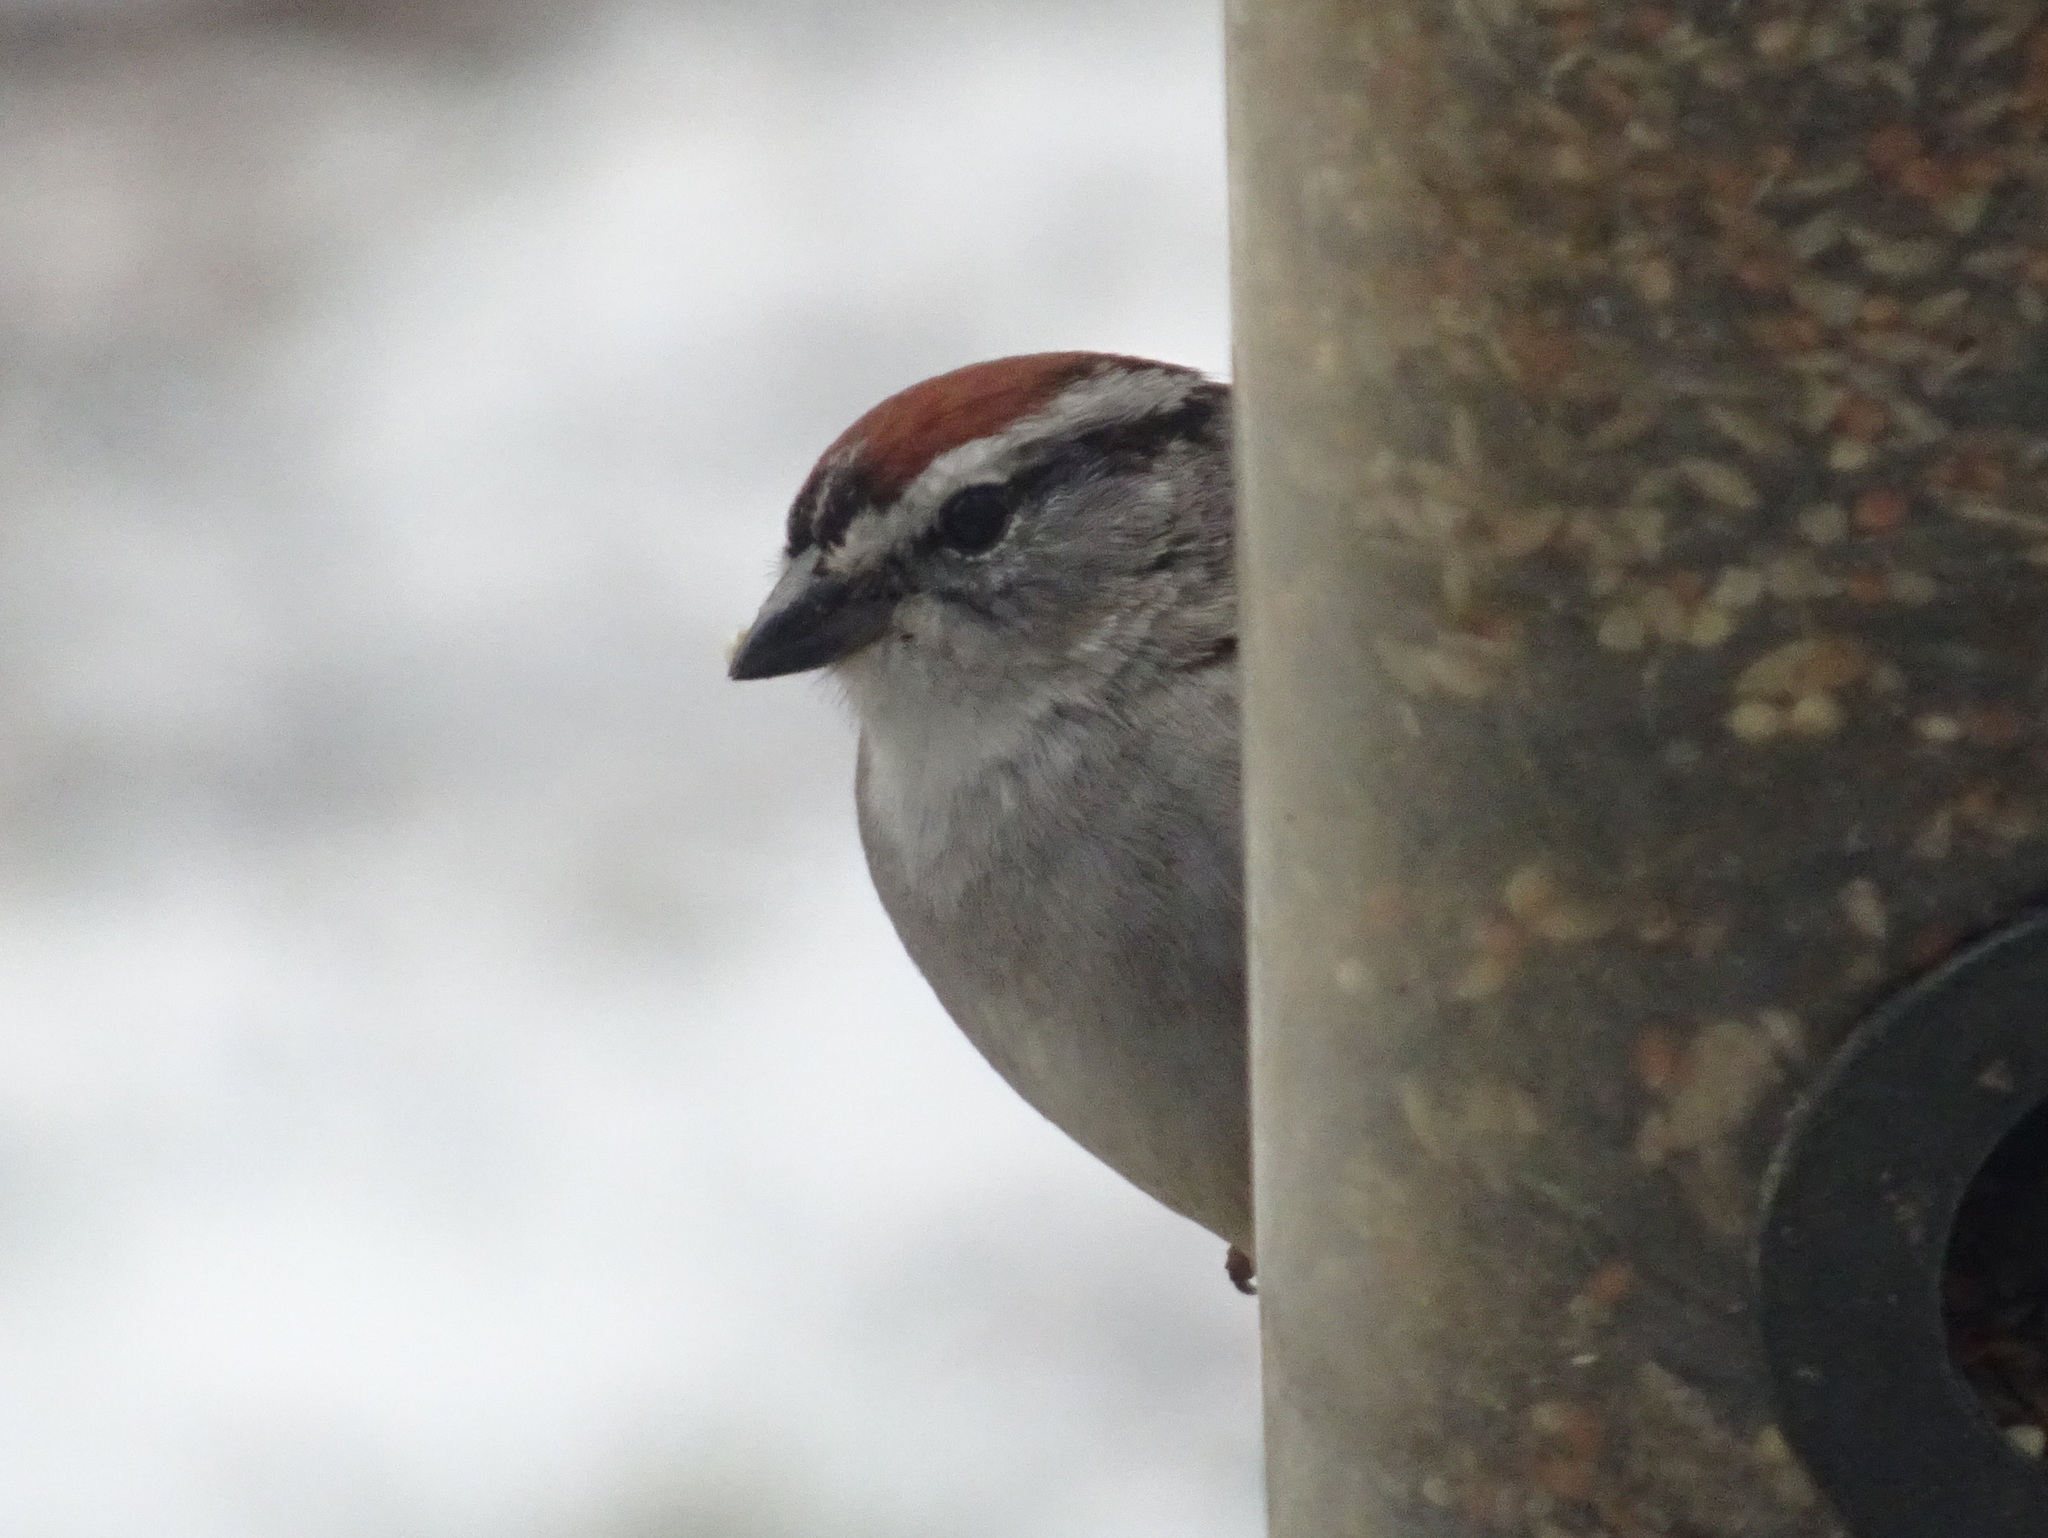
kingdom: Animalia
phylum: Chordata
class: Aves
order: Passeriformes
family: Passerellidae
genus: Spizella
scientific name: Spizella passerina
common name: Chipping sparrow
